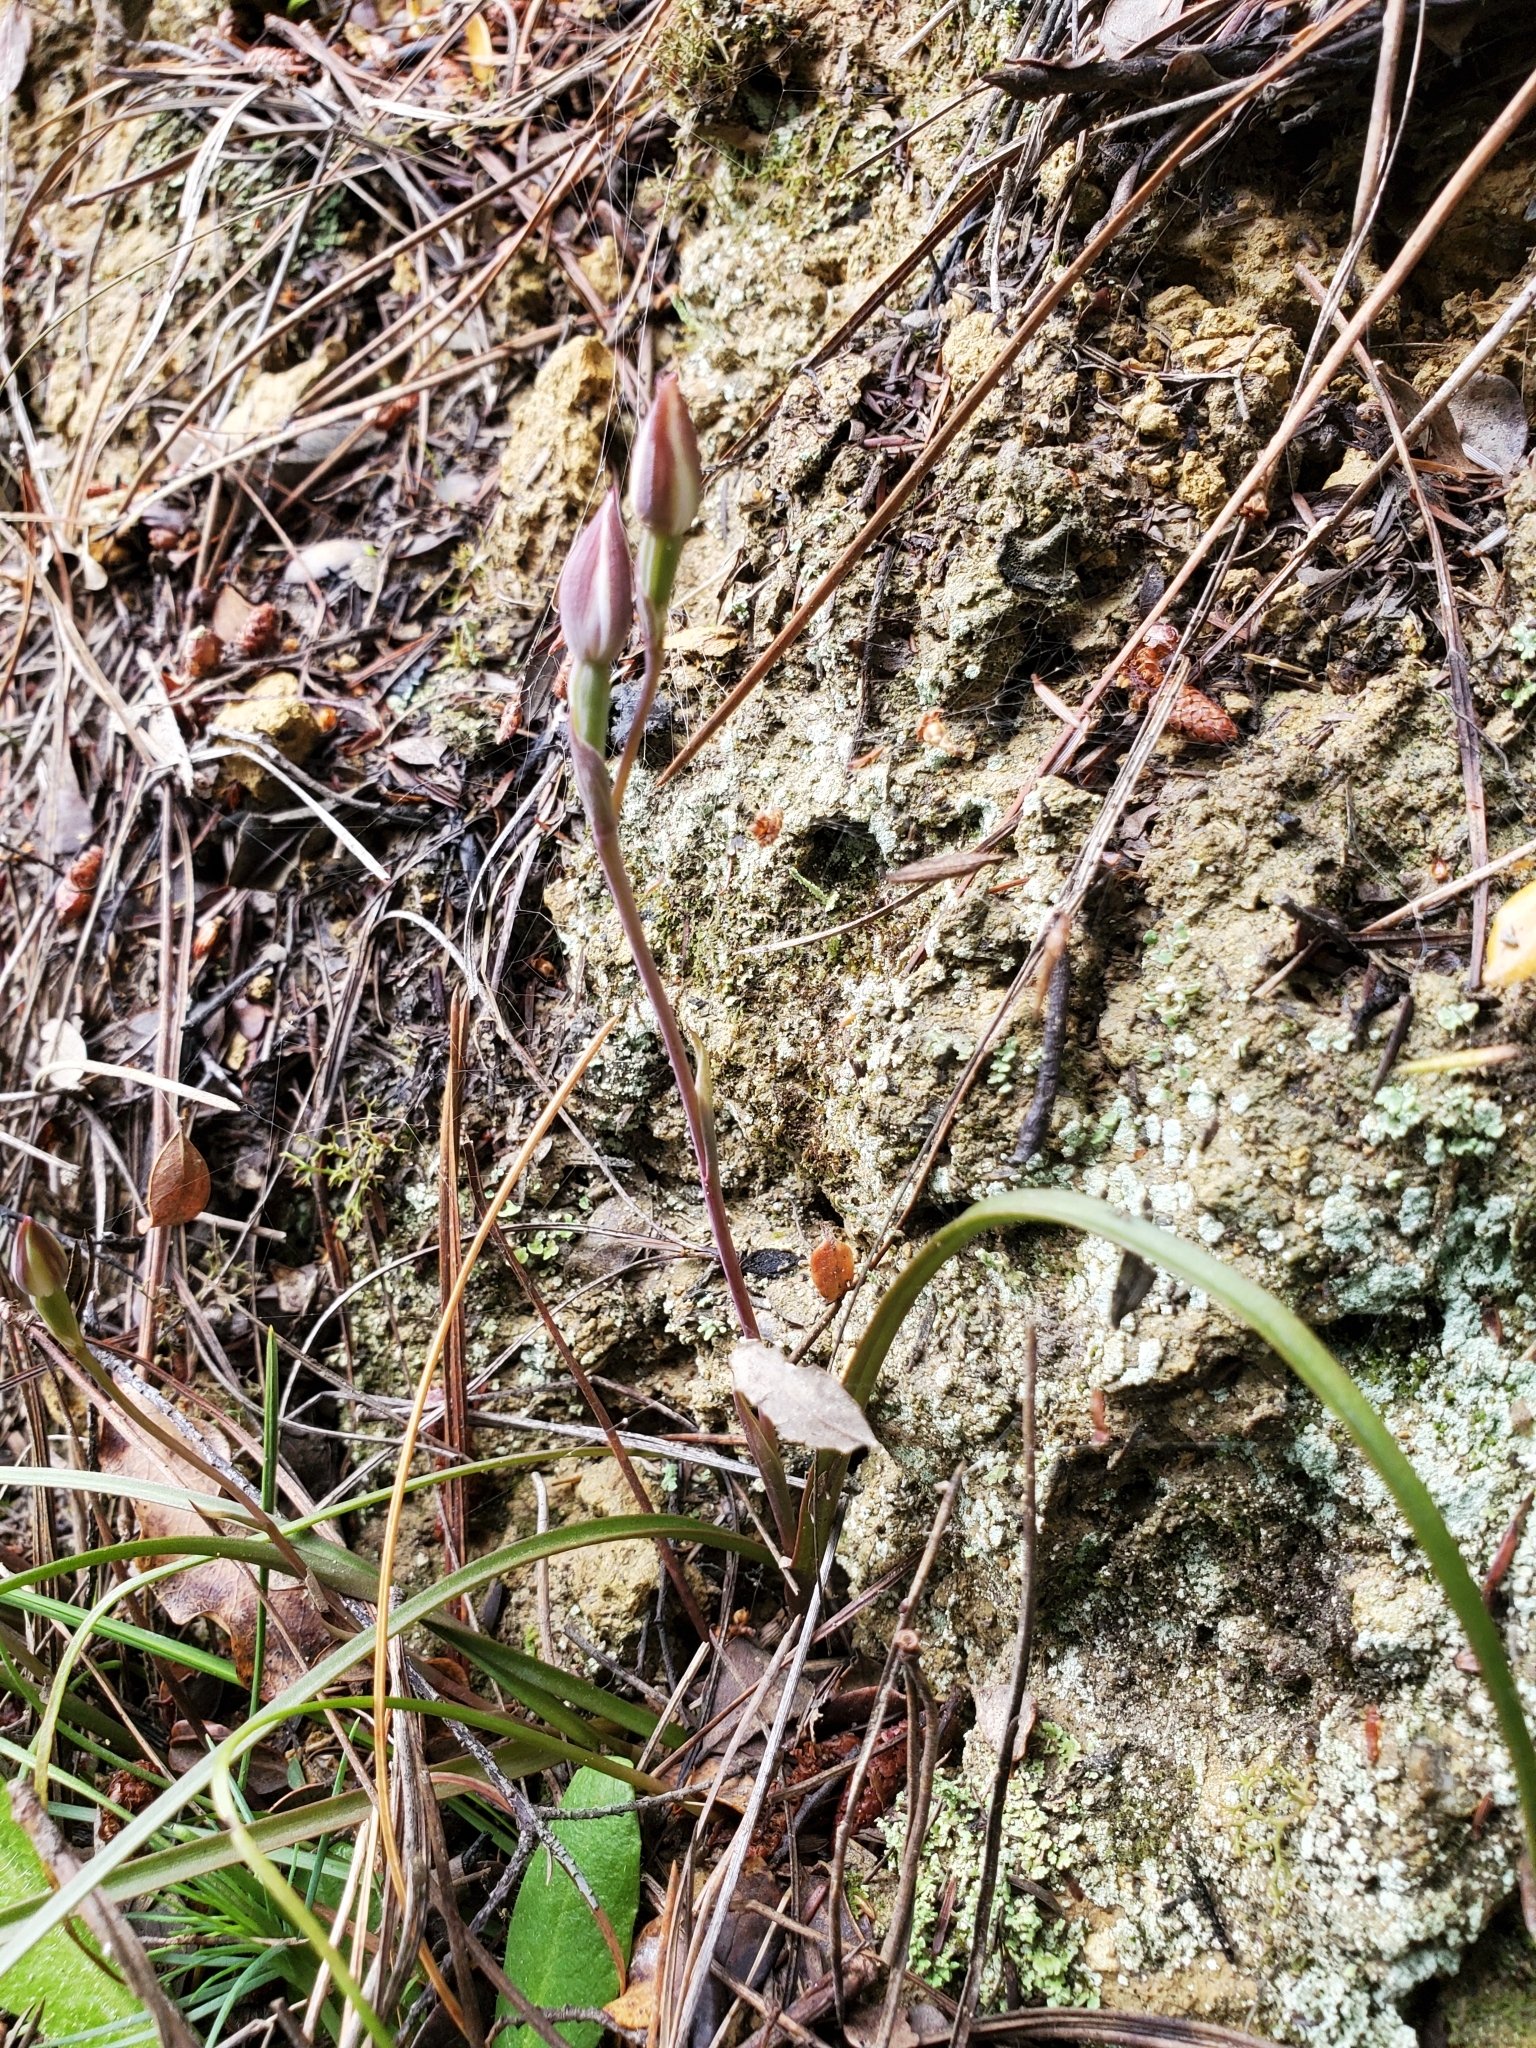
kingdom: Plantae
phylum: Tracheophyta
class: Liliopsida
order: Asparagales
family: Orchidaceae
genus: Thelymitra
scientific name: Thelymitra longifolia
